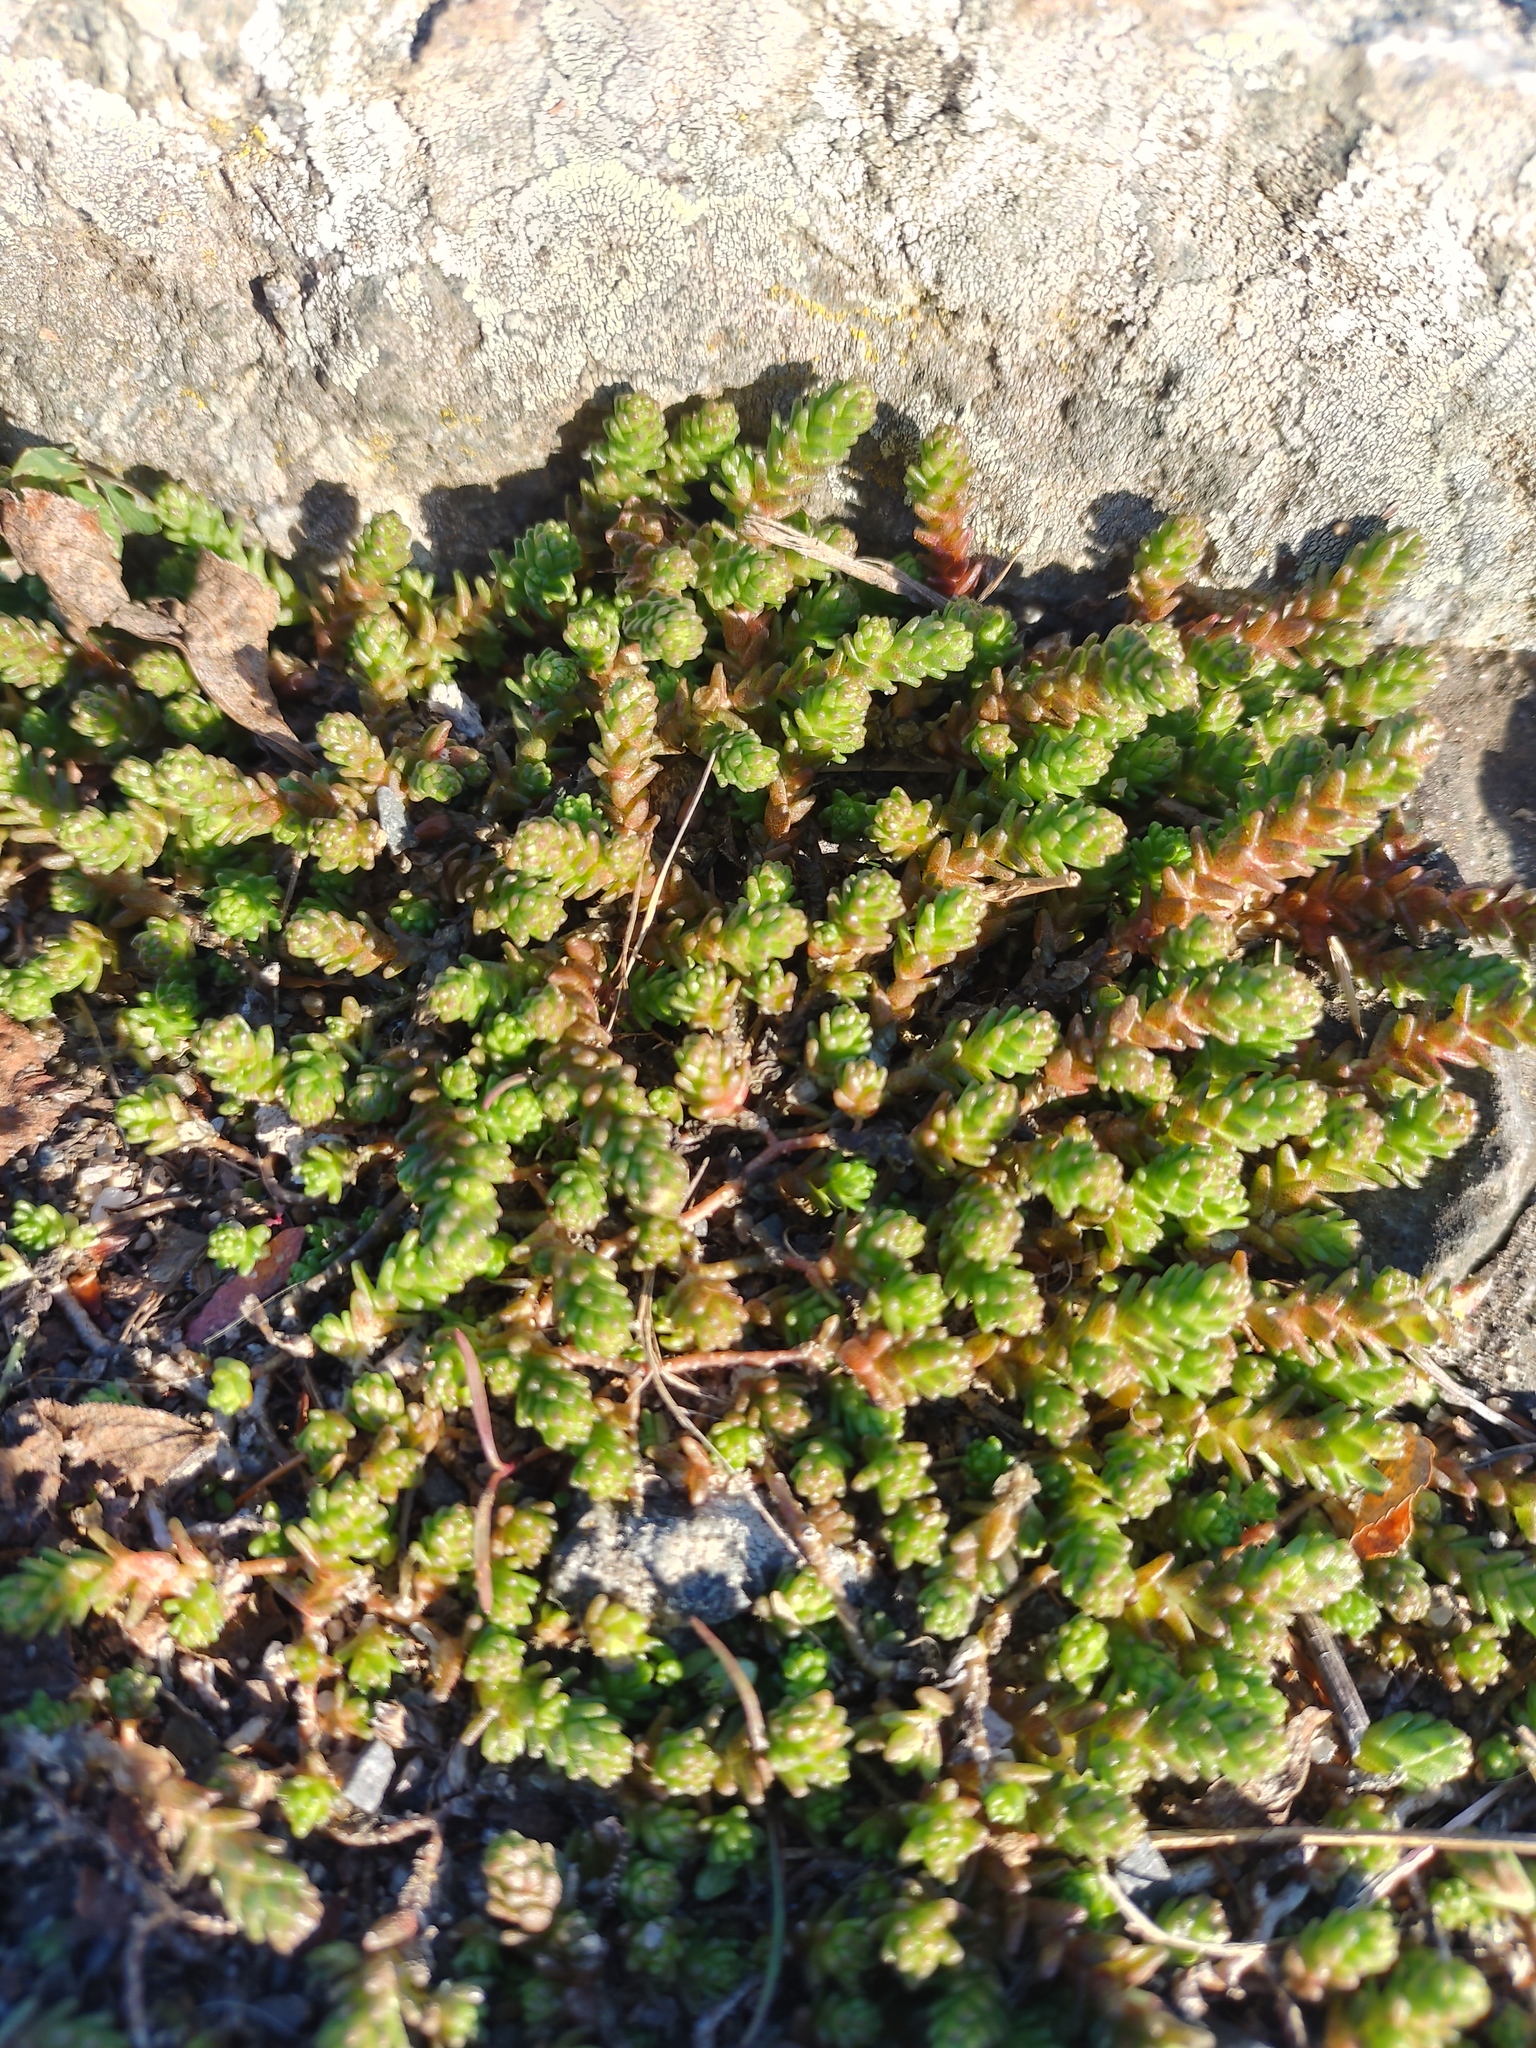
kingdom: Plantae
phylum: Tracheophyta
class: Magnoliopsida
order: Saxifragales
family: Crassulaceae
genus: Sedum
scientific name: Sedum acre
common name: Biting stonecrop
